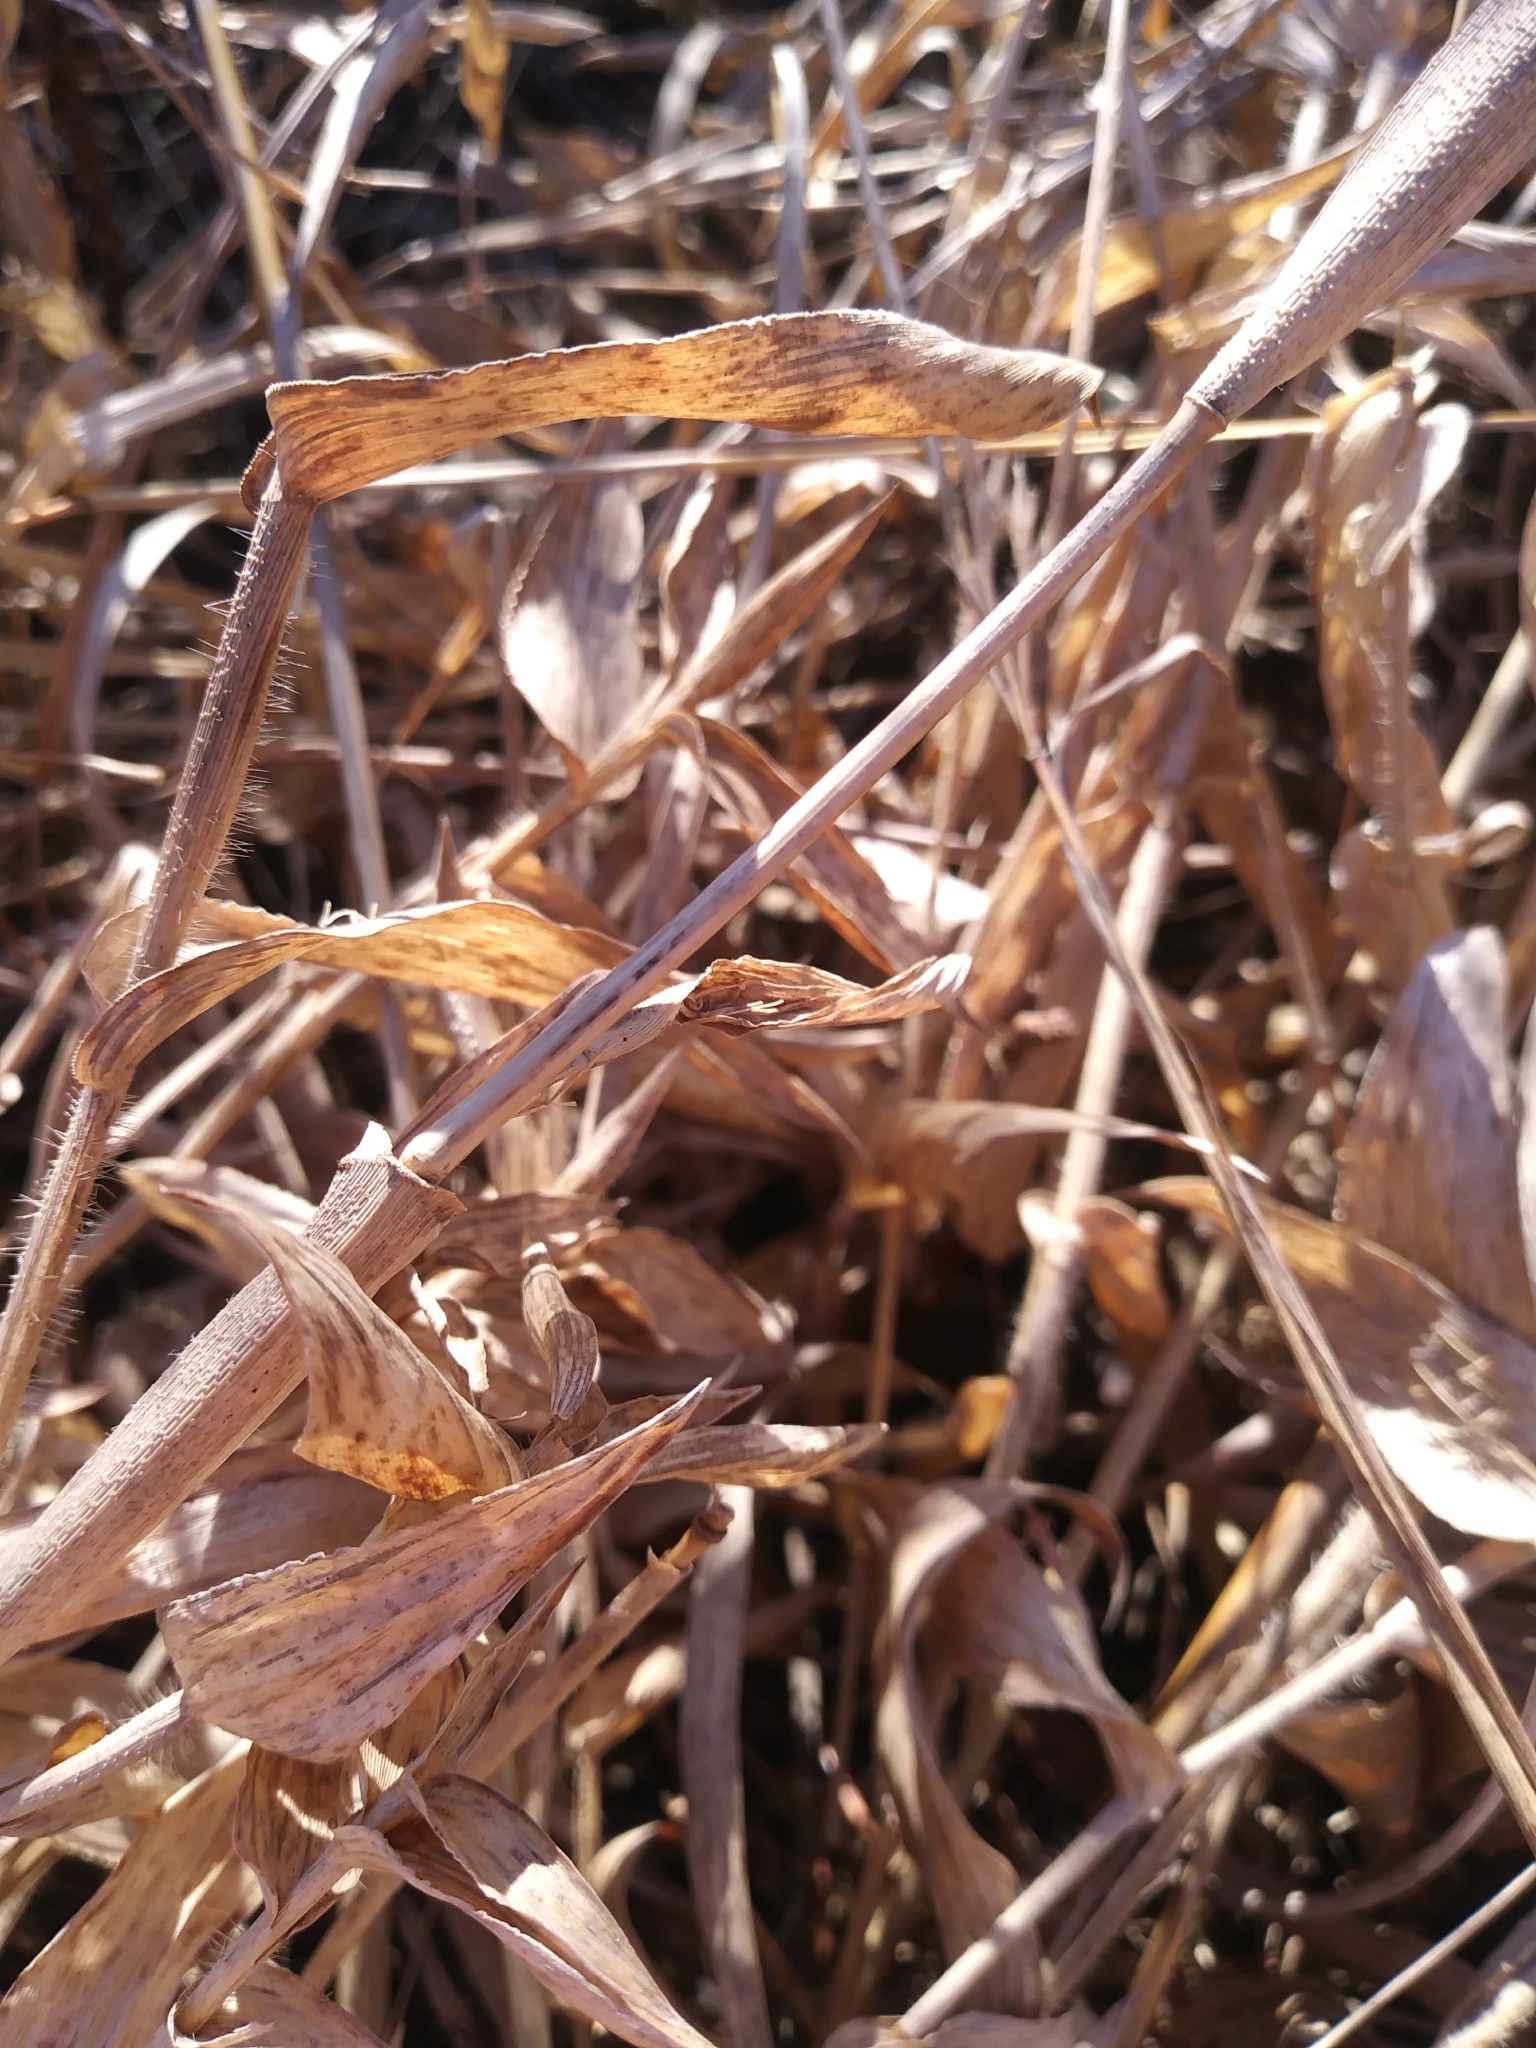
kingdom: Plantae
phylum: Tracheophyta
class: Liliopsida
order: Poales
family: Poaceae
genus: Dichanthelium
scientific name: Dichanthelium clandestinum
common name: Deer-tongue grass
